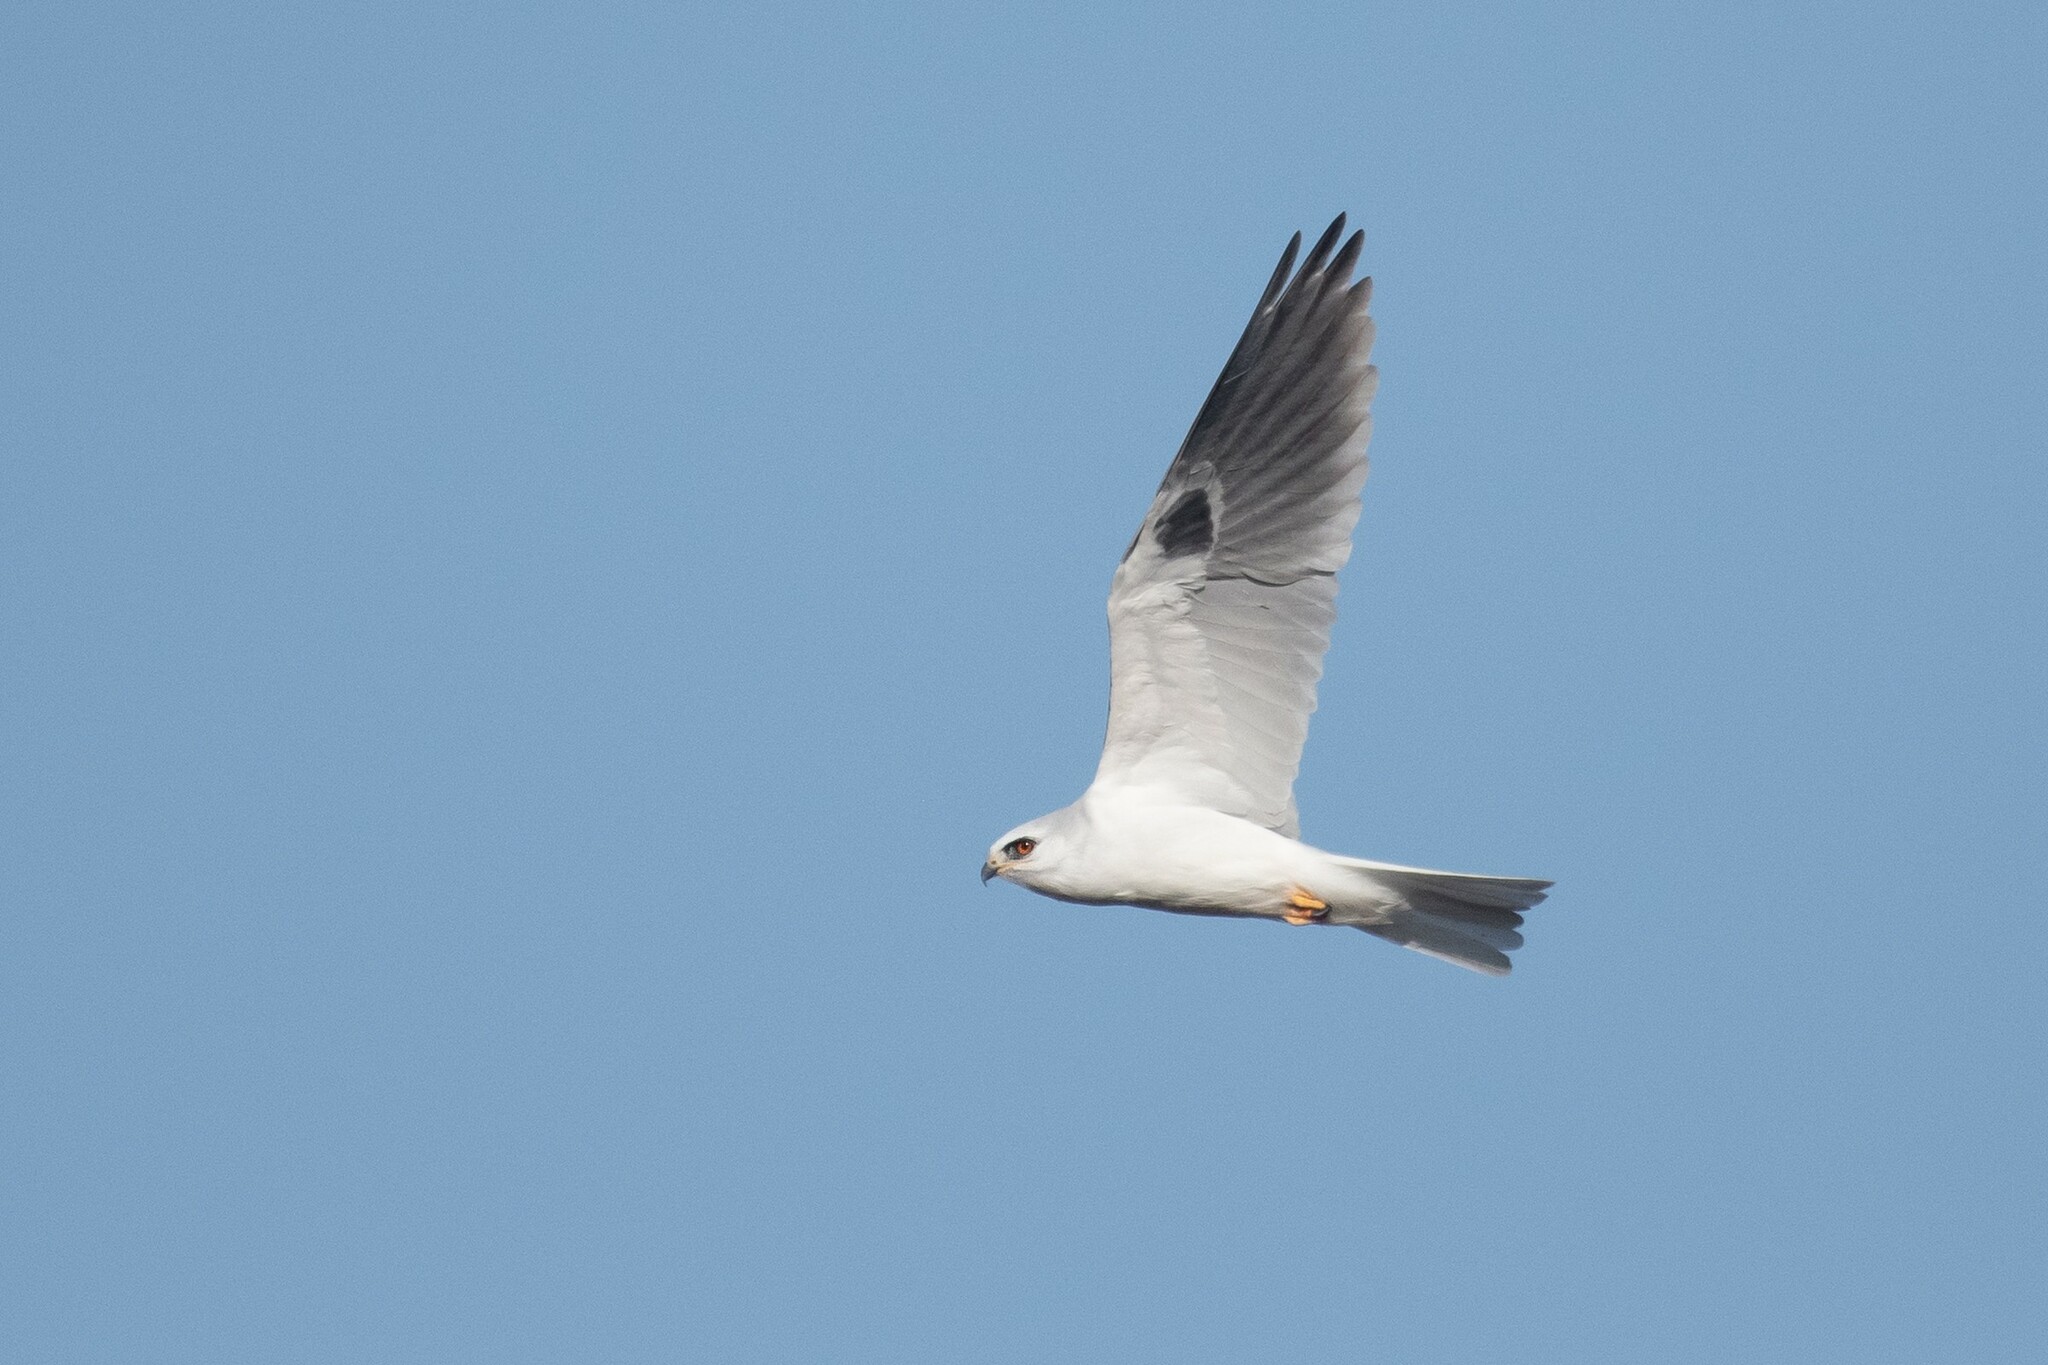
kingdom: Animalia
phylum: Chordata
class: Aves
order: Accipitriformes
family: Accipitridae
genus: Elanus
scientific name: Elanus leucurus
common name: White-tailed kite
